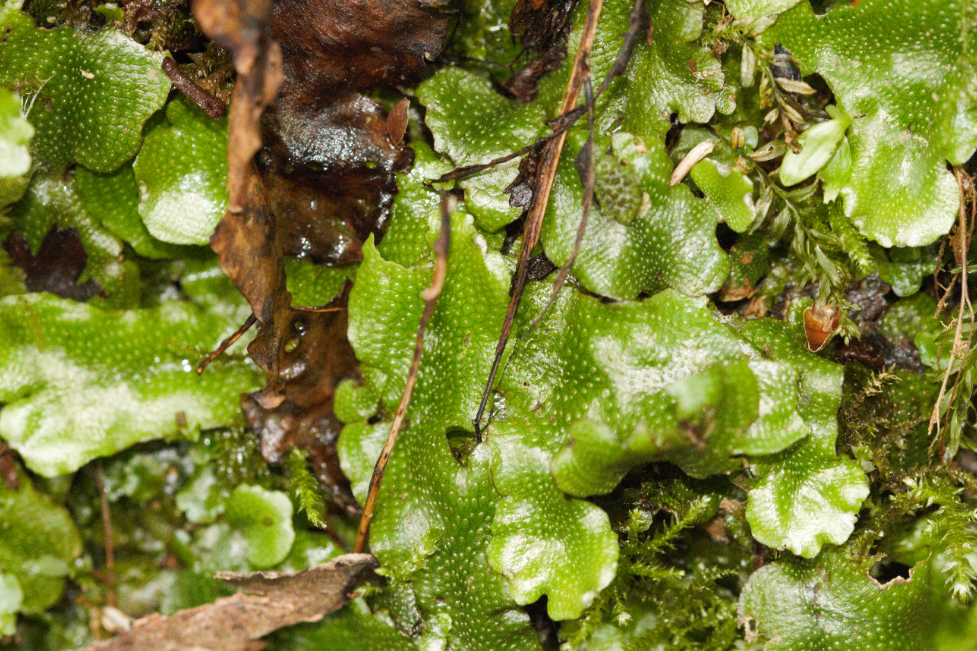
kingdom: Plantae
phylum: Marchantiophyta
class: Marchantiopsida
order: Marchantiales
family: Conocephalaceae
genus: Conocephalum
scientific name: Conocephalum conicum
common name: Great scented liverwort
